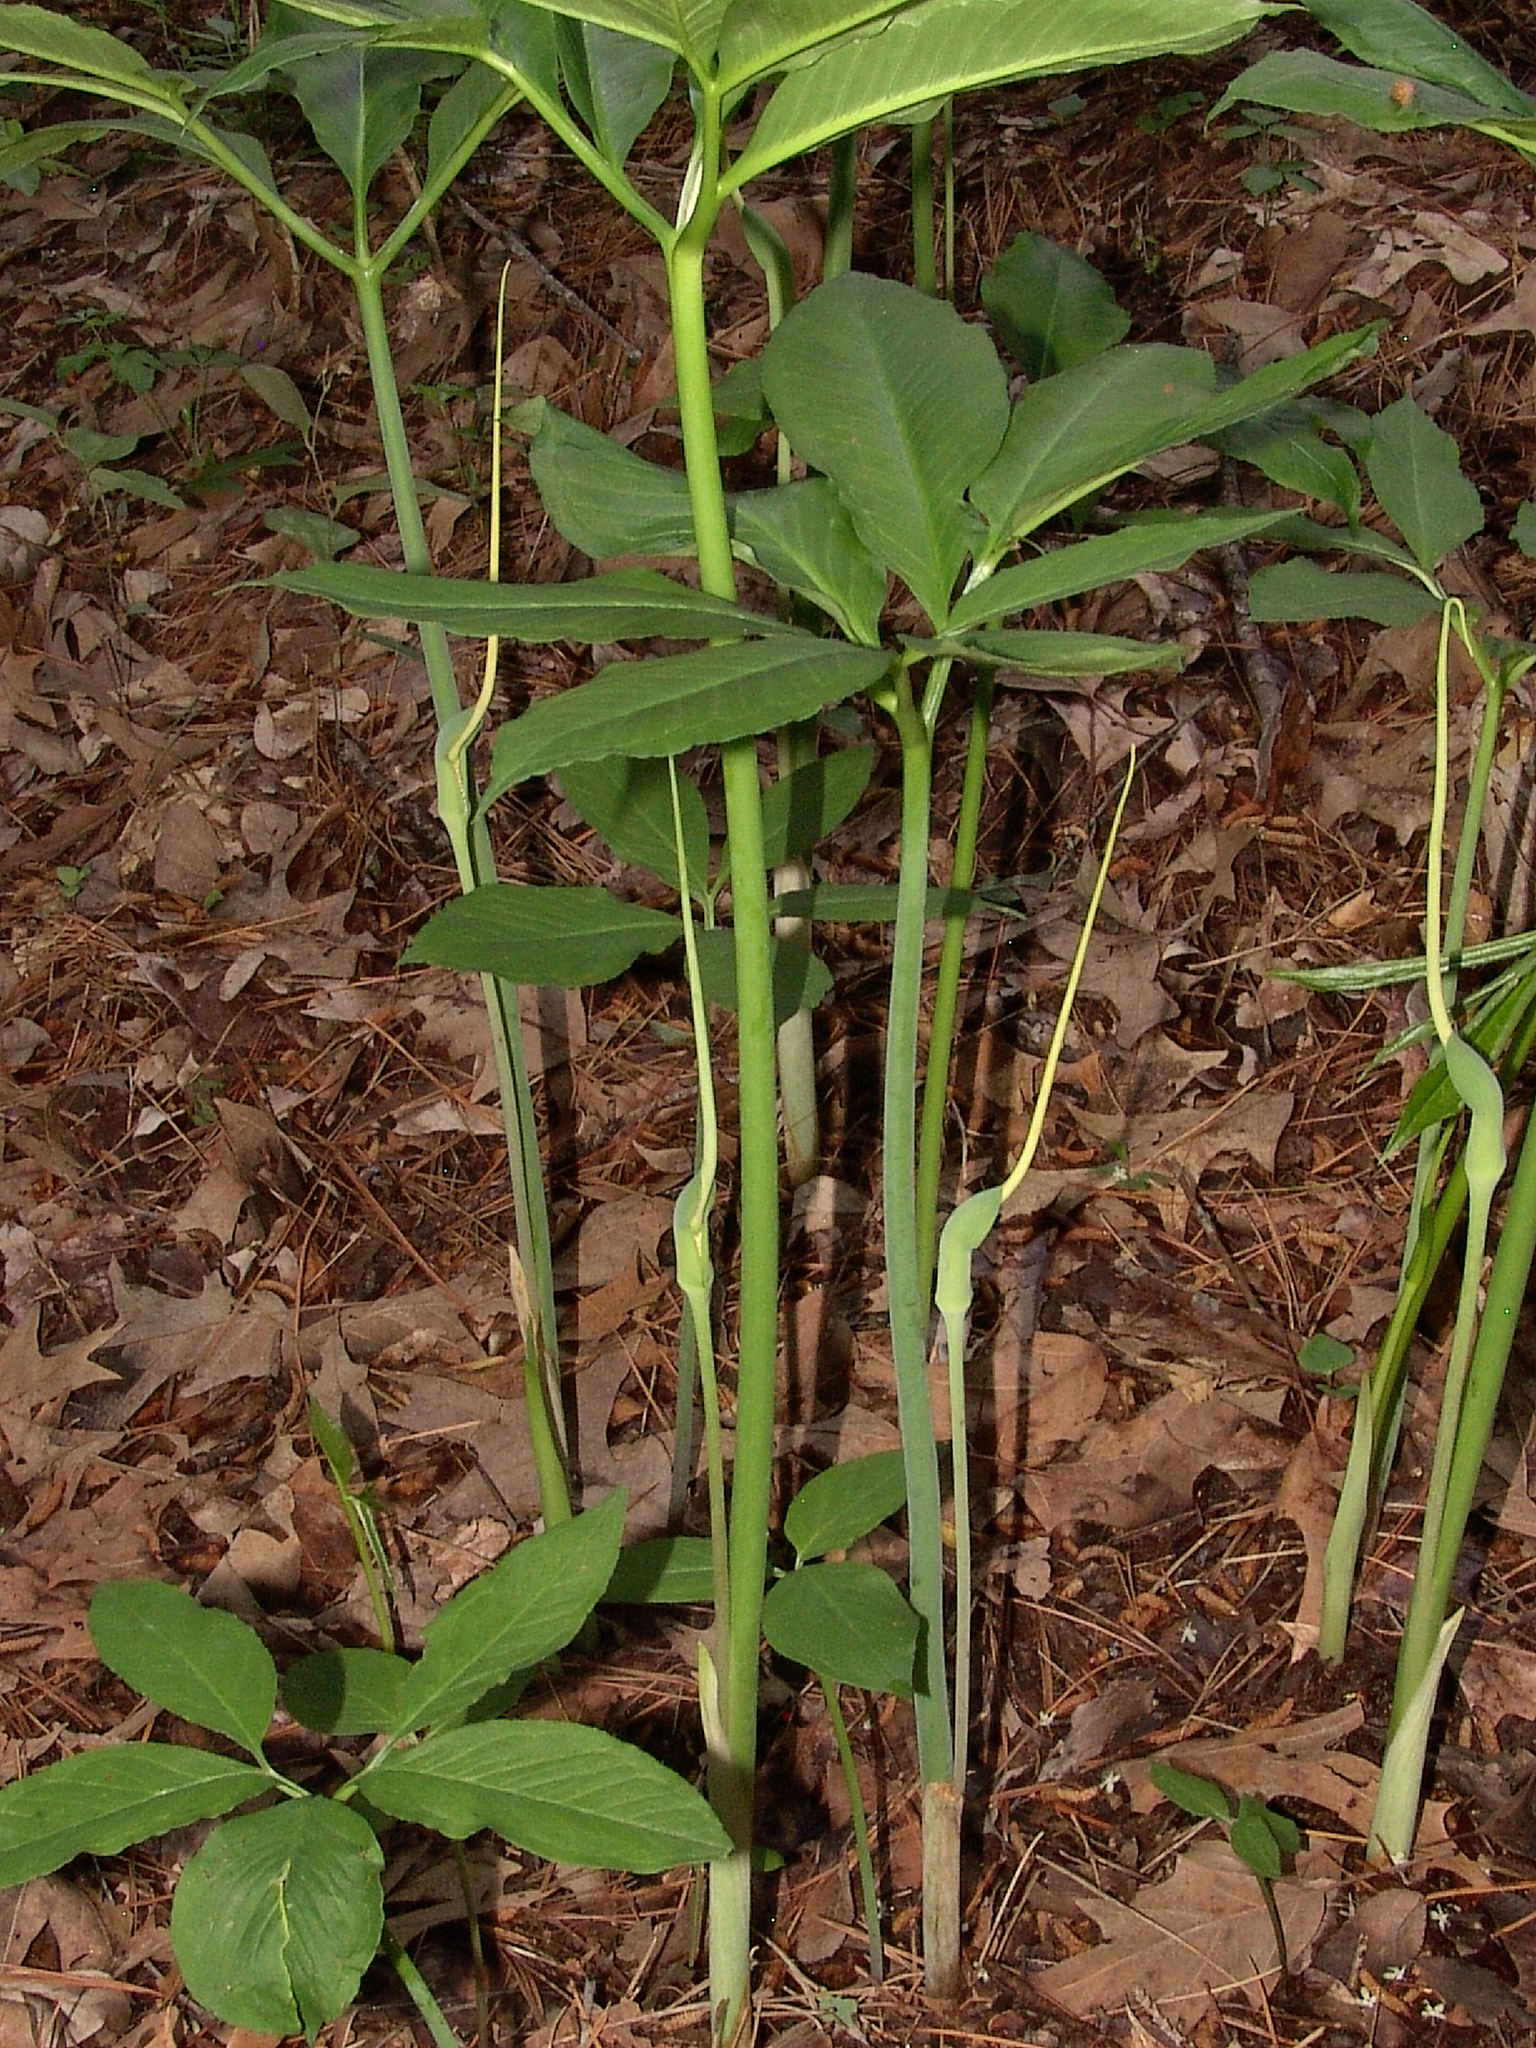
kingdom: Plantae
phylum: Tracheophyta
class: Liliopsida
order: Alismatales
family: Araceae
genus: Arisaema
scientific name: Arisaema dracontium
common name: Dragon-arum
